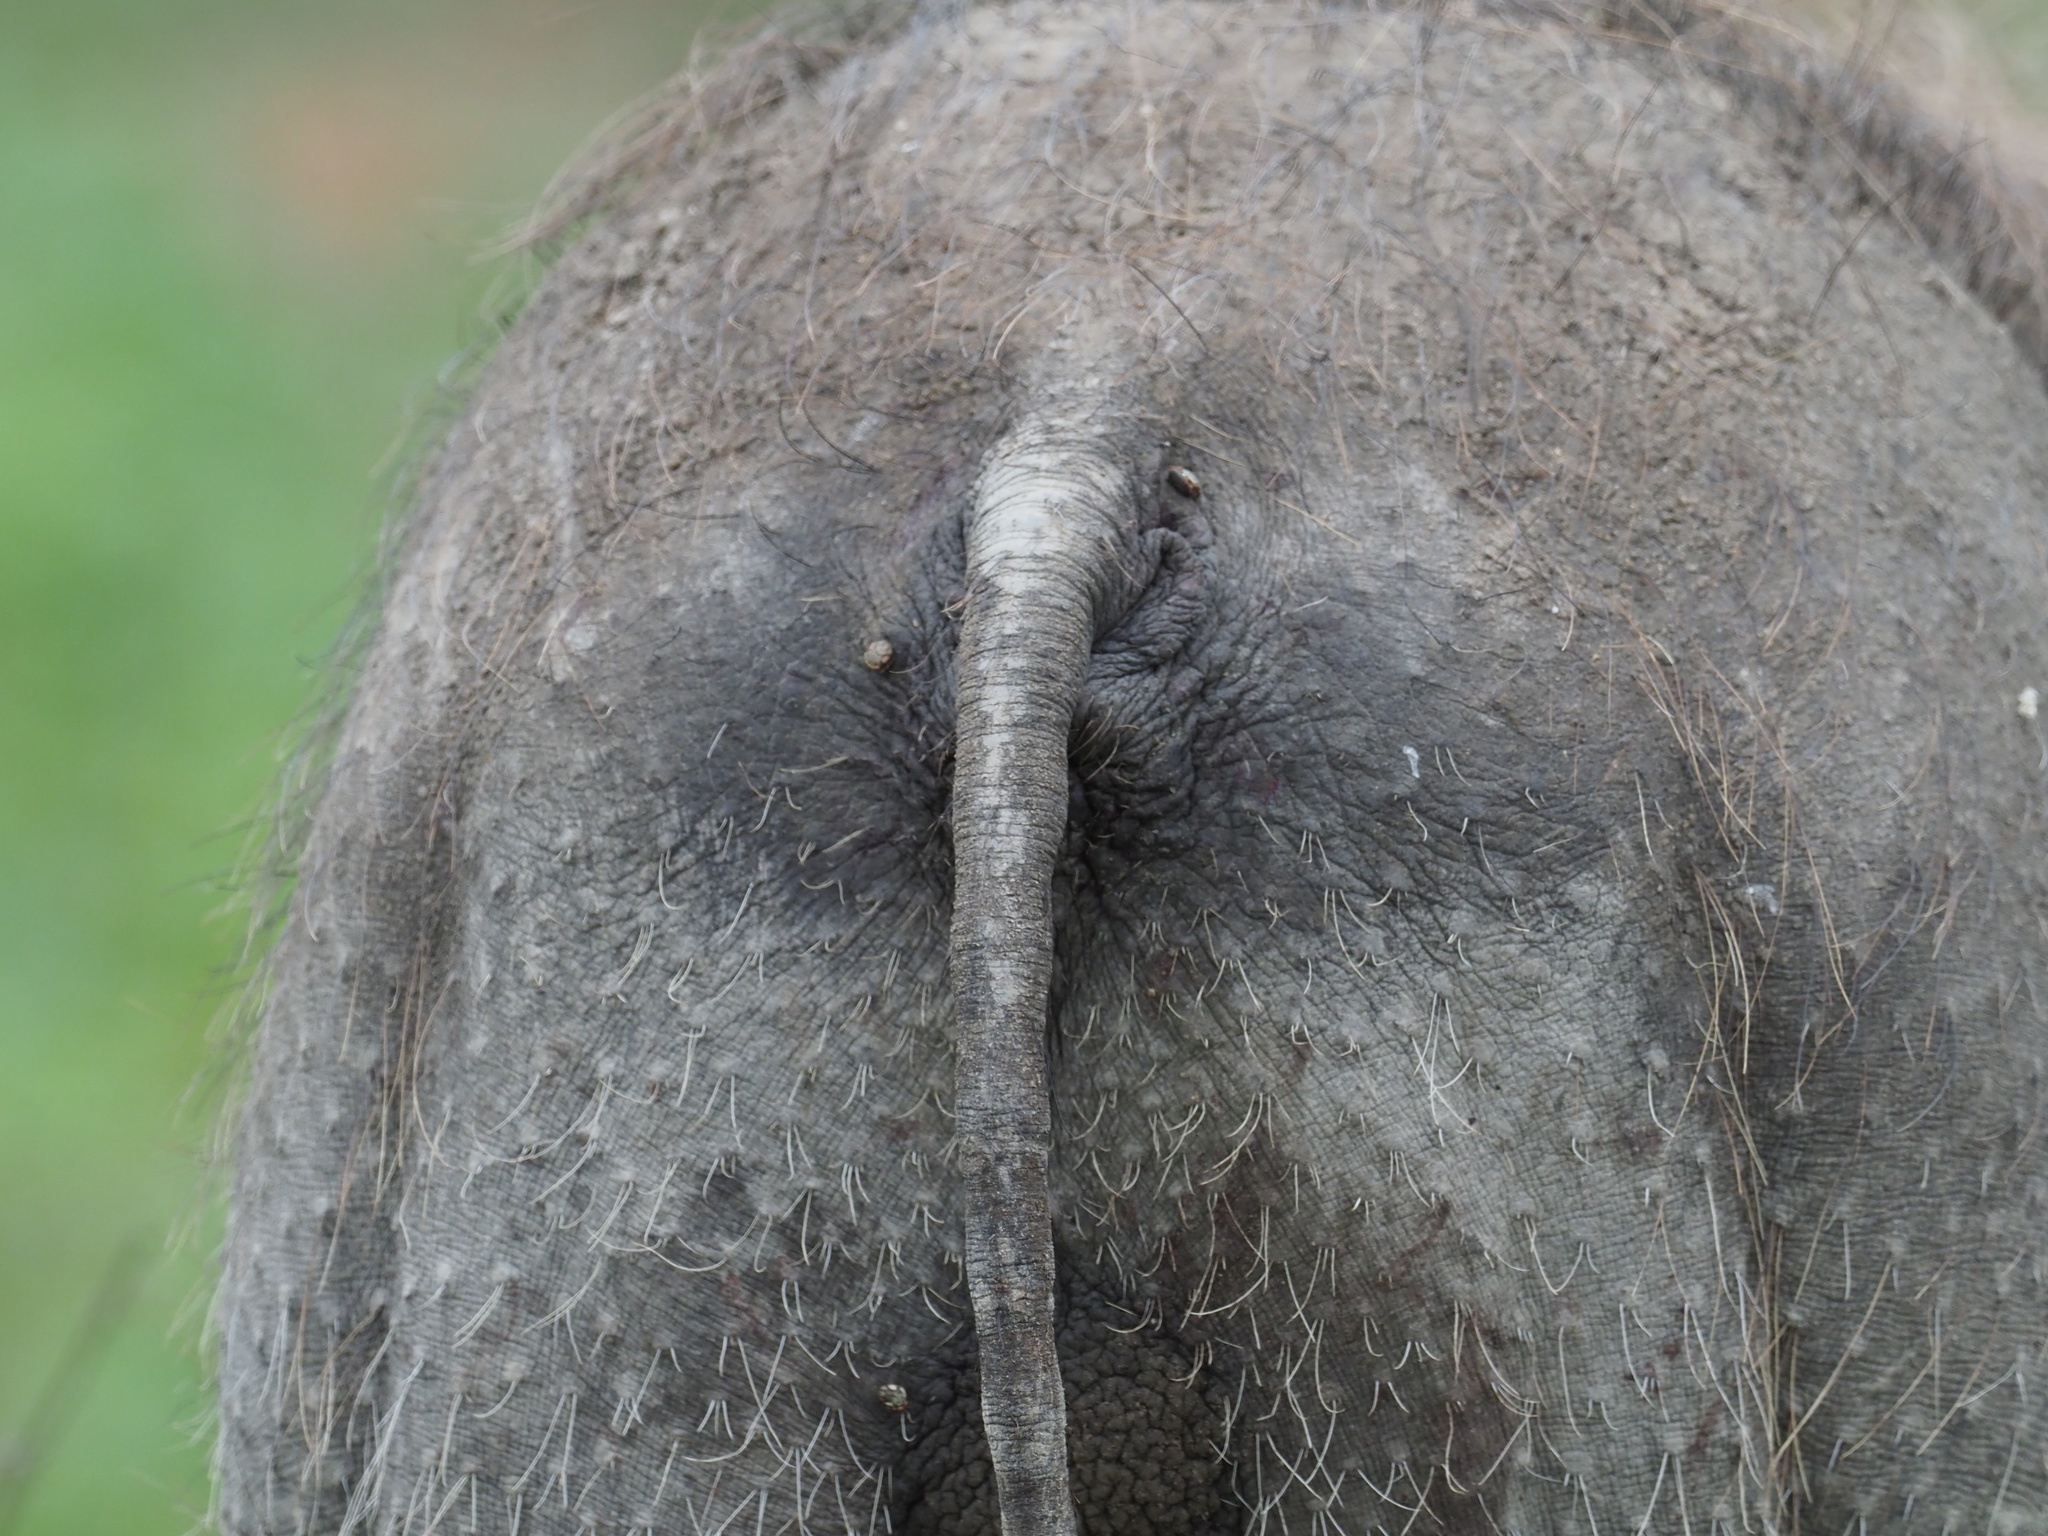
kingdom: Animalia
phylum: Chordata
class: Mammalia
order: Artiodactyla
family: Suidae
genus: Phacochoerus
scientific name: Phacochoerus africanus
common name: Common warthog
